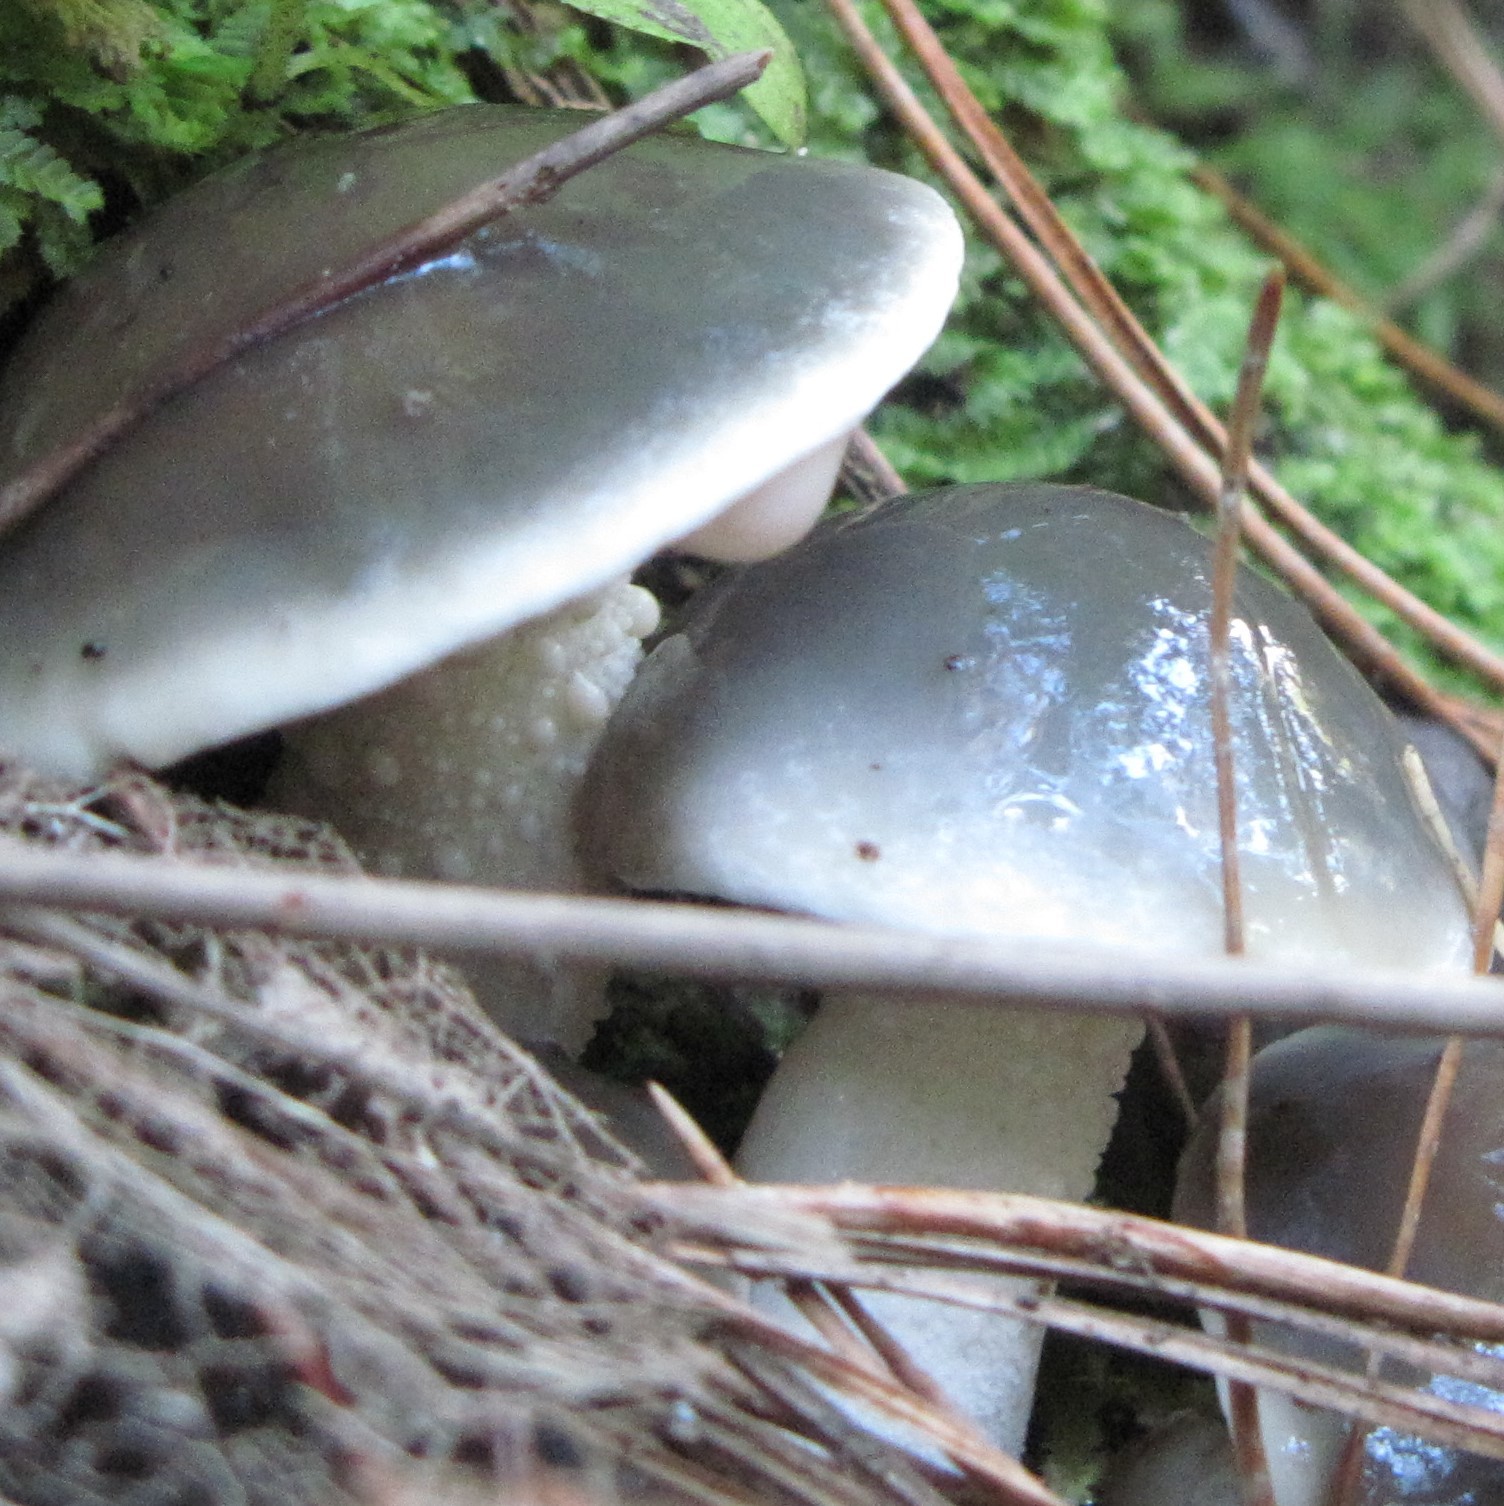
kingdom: Fungi
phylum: Basidiomycota
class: Agaricomycetes
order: Boletales
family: Suillaceae
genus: Suillus
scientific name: Suillus pungens
